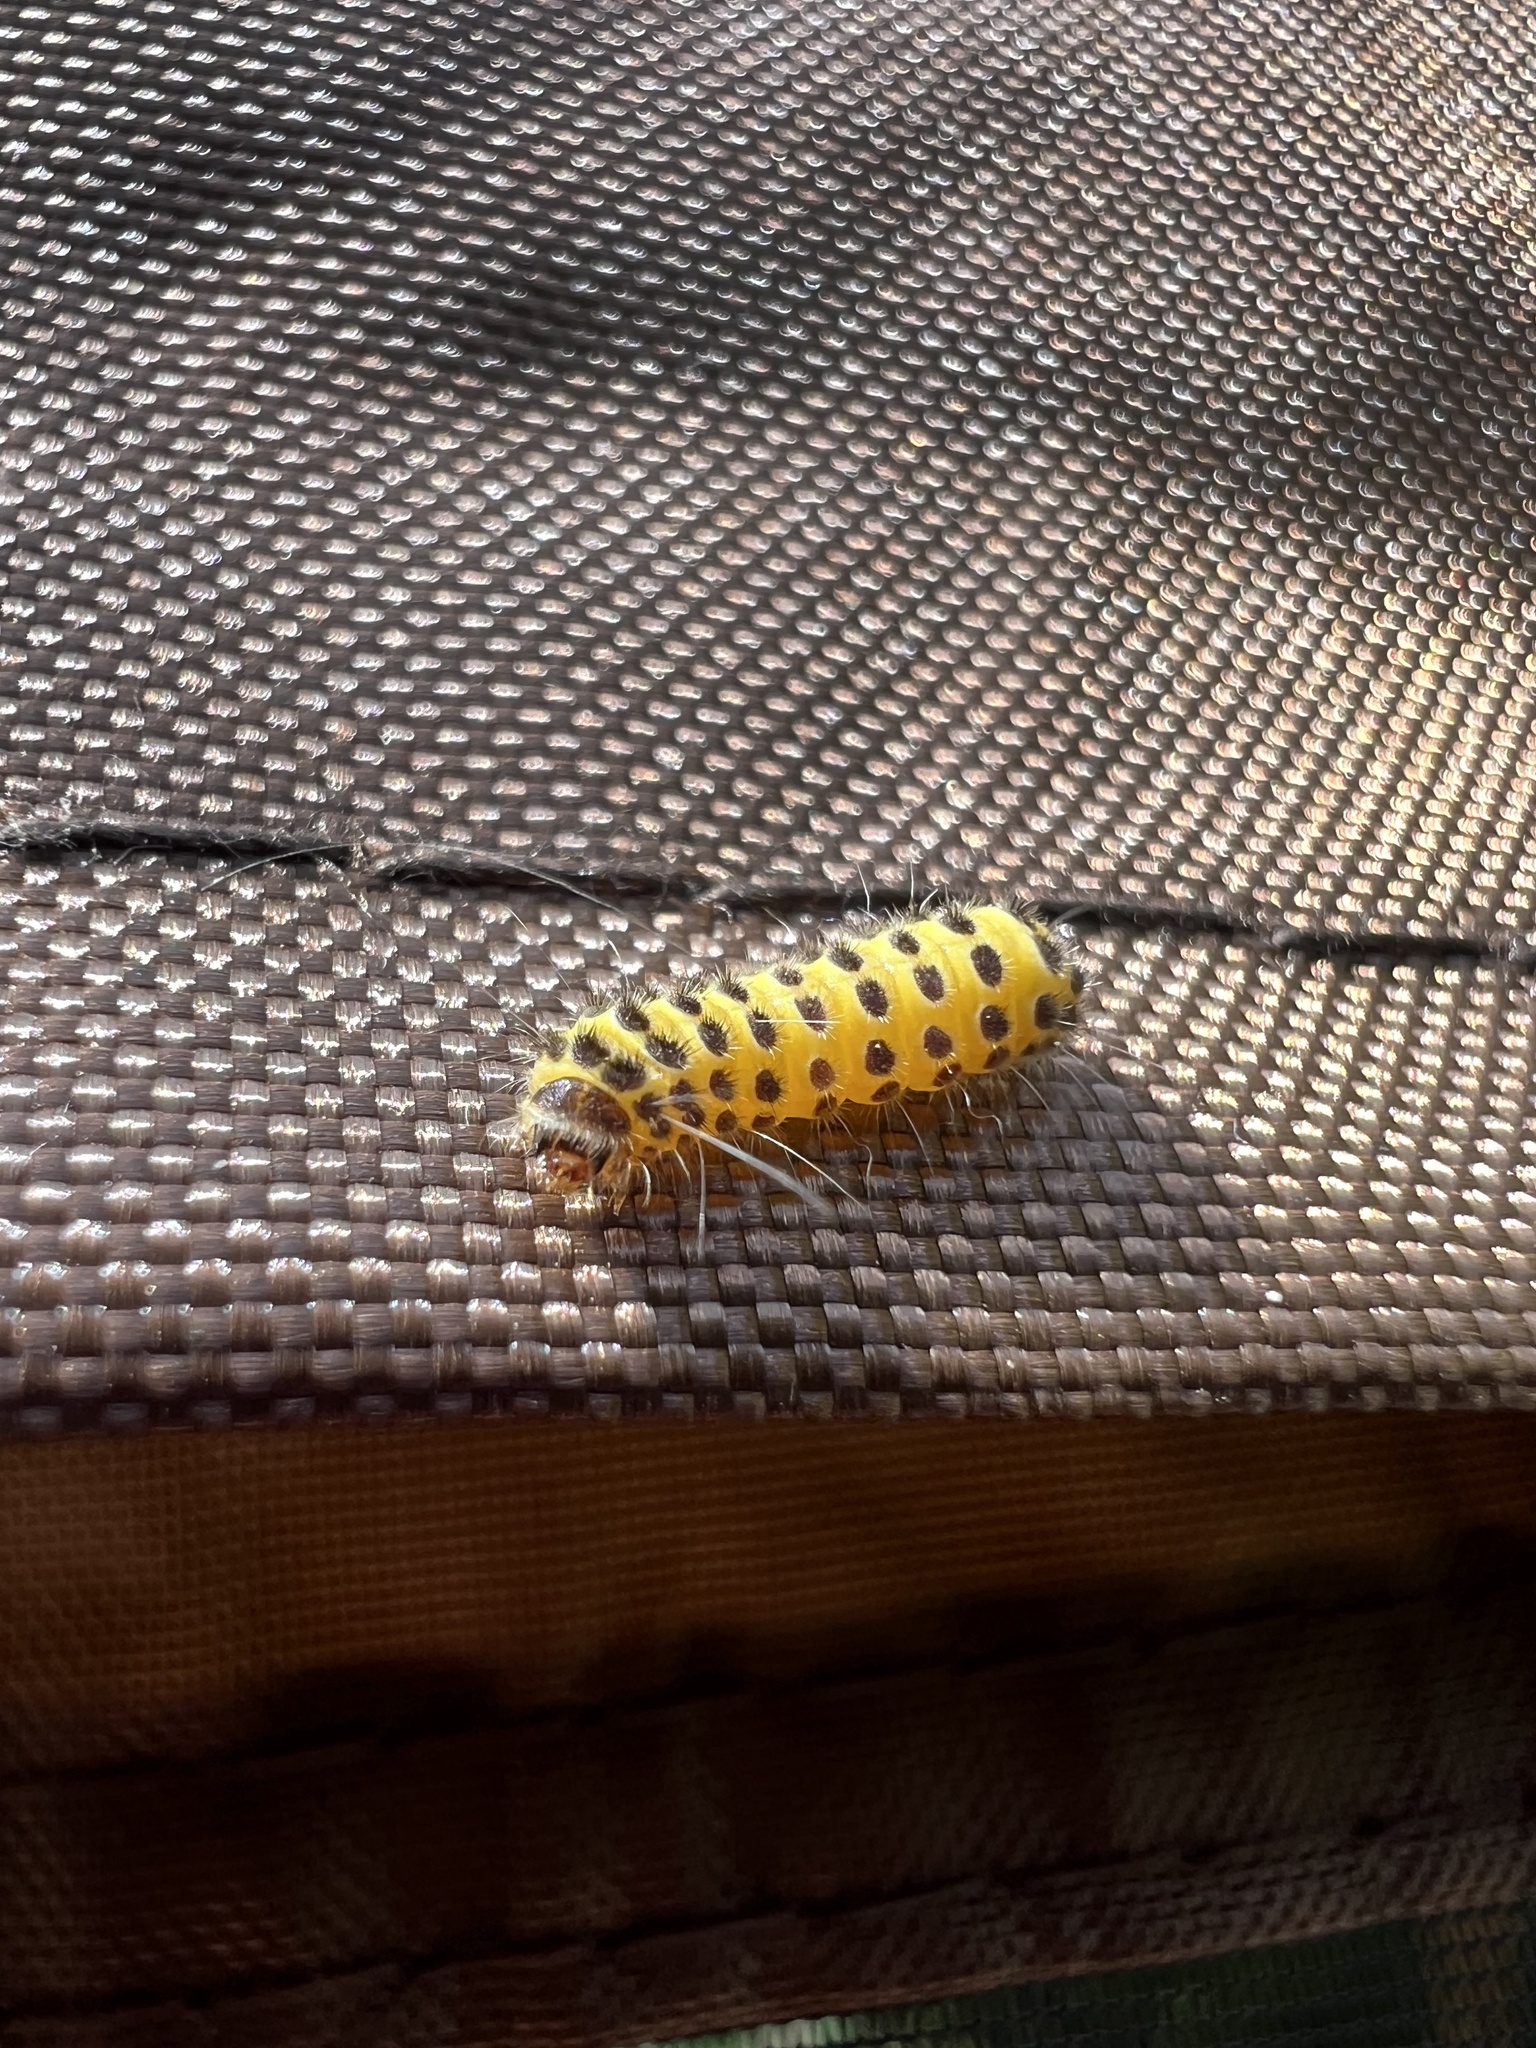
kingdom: Animalia
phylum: Arthropoda
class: Insecta
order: Lepidoptera
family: Zygaenidae
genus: Harrisina
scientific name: Harrisina americana
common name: Grapeleaf skeletonizer moth
